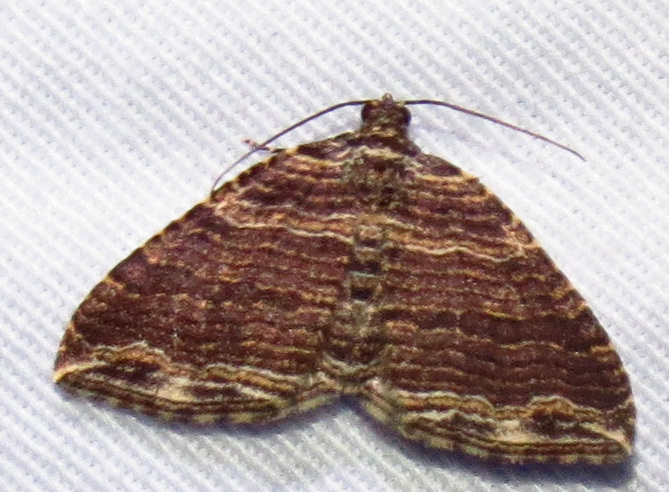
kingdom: Animalia
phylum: Arthropoda
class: Insecta
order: Lepidoptera
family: Geometridae
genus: Anticlea
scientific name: Anticlea multiferata
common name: Many-lined carpet
